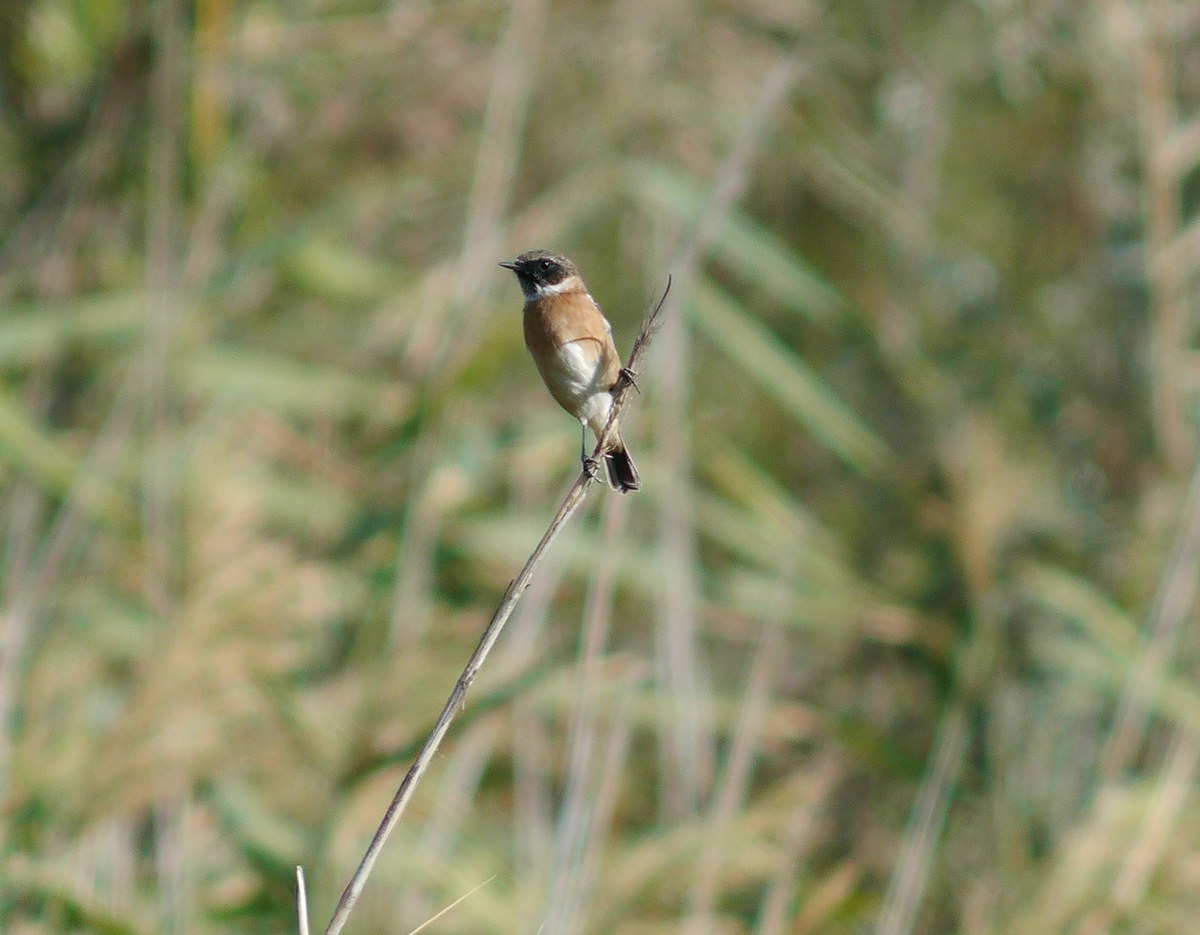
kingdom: Animalia
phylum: Chordata
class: Aves
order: Passeriformes
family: Muscicapidae
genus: Saxicola
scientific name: Saxicola rubicola
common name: European stonechat
